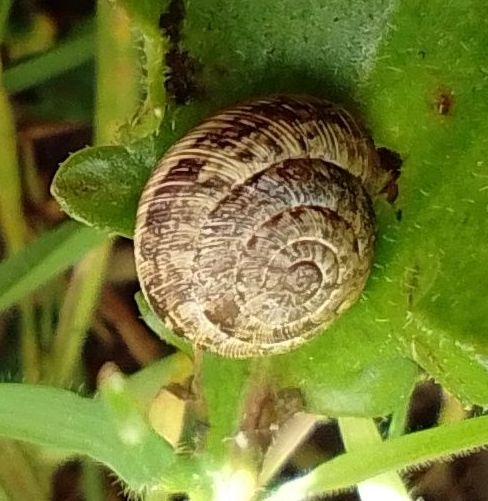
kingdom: Animalia
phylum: Mollusca
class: Gastropoda
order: Stylommatophora
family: Geomitridae
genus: Xeroplexa
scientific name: Xeroplexa intersecta
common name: Wrinkled snail
